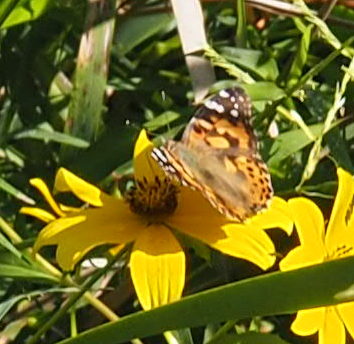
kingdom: Animalia
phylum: Arthropoda
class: Insecta
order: Lepidoptera
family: Nymphalidae
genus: Vanessa
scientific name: Vanessa cardui
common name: Painted lady
